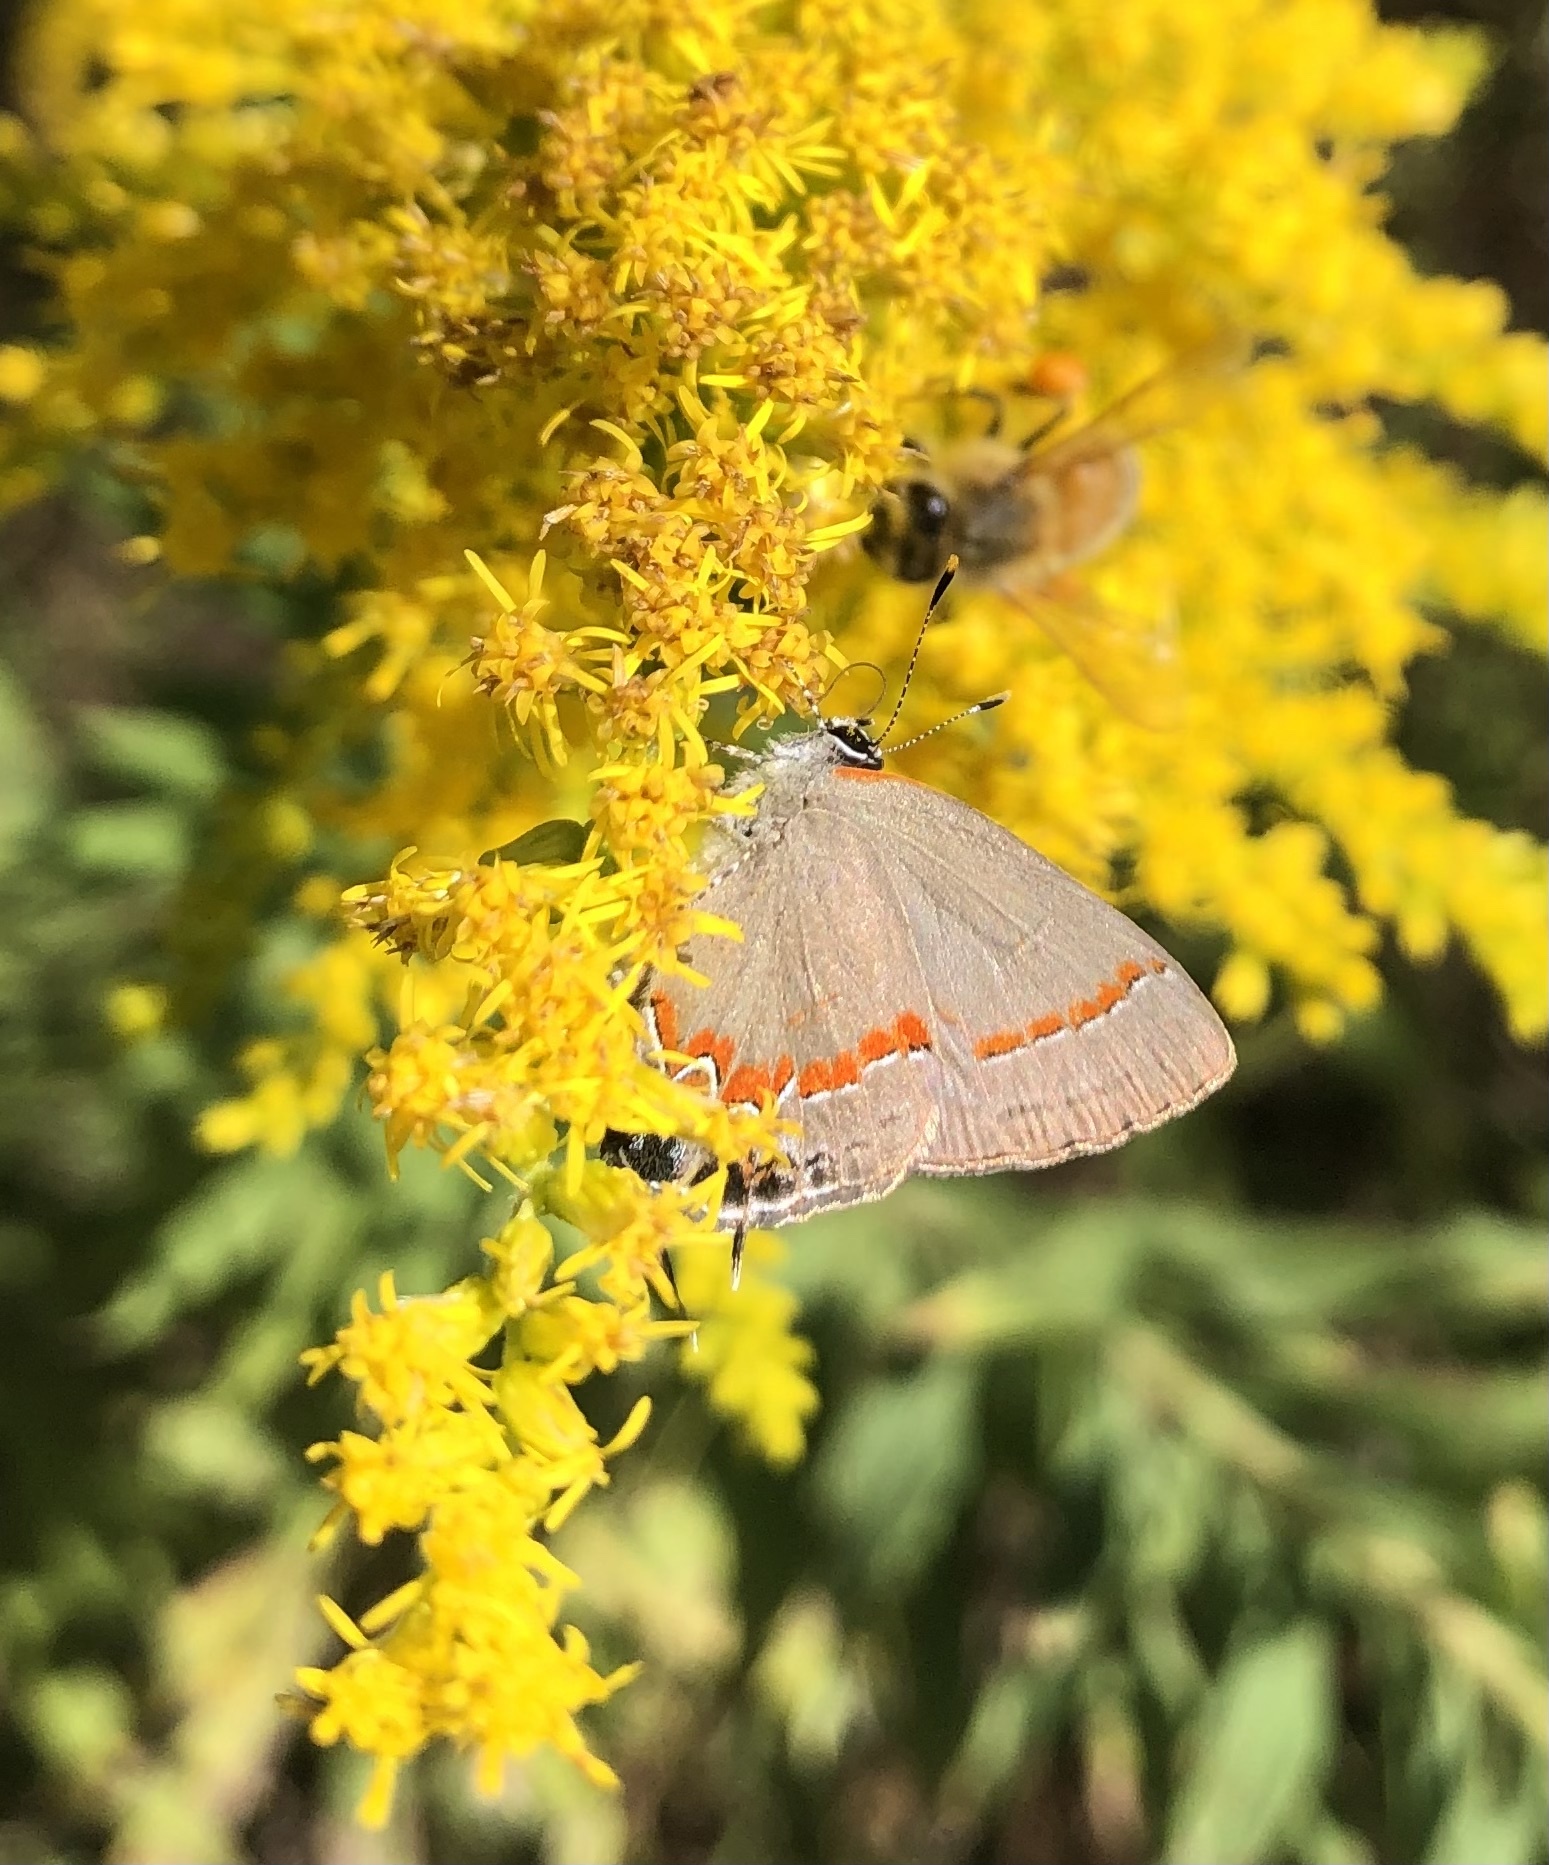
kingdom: Animalia
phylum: Arthropoda
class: Insecta
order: Lepidoptera
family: Lycaenidae
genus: Calycopis
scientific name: Calycopis cecrops
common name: Red-banded hairstreak
